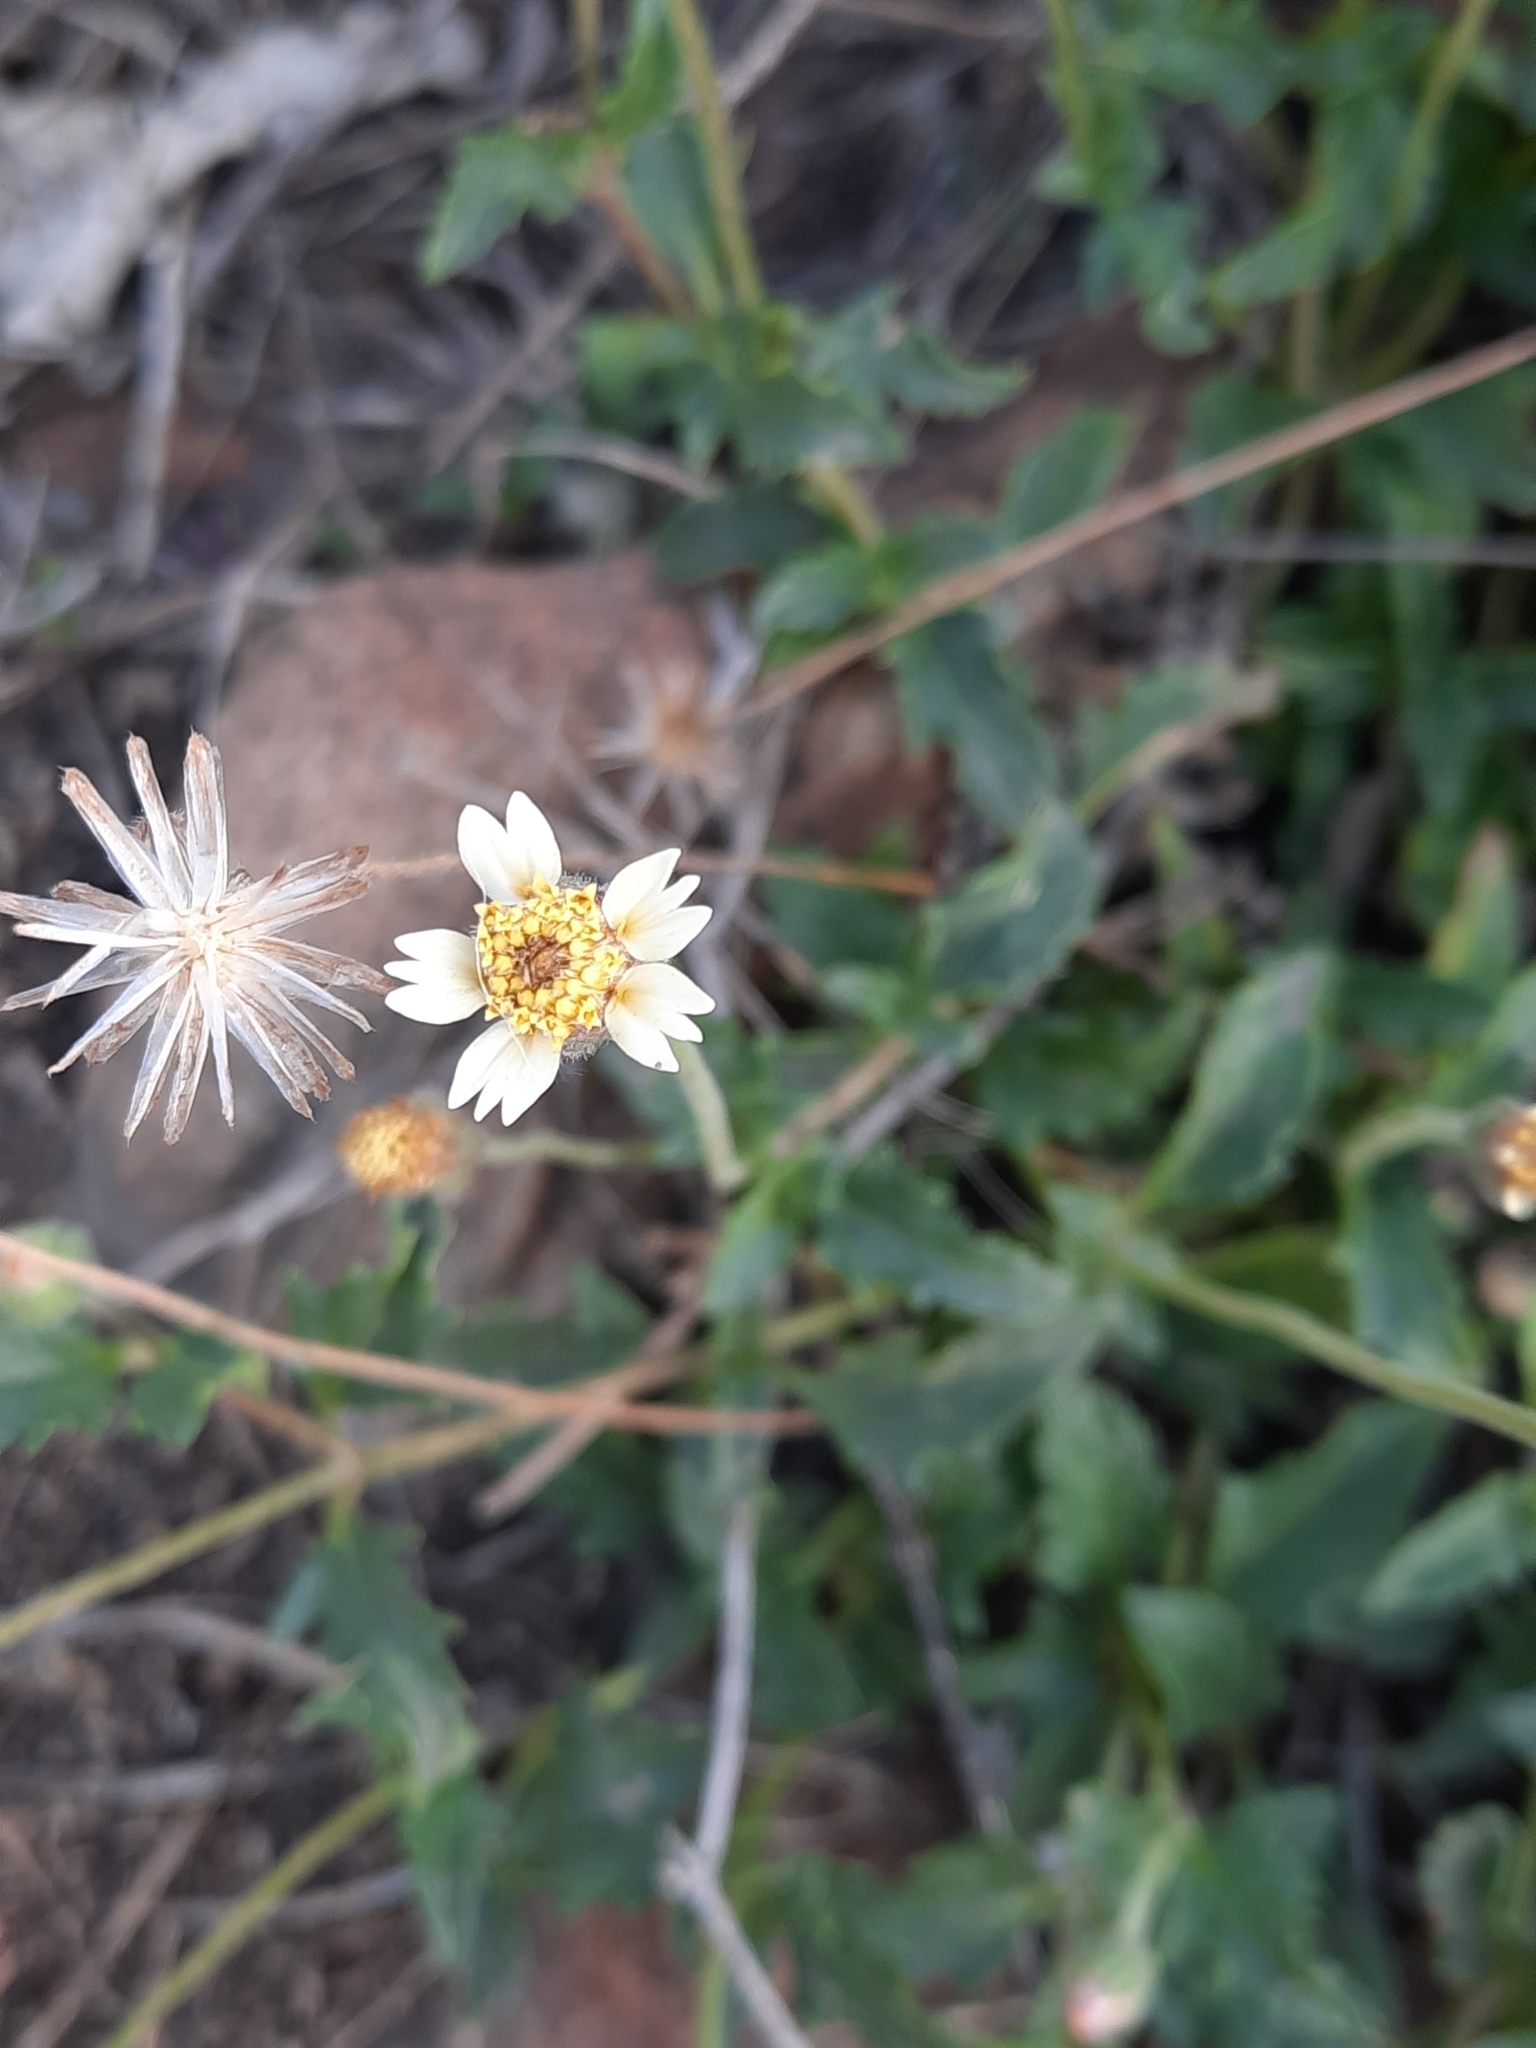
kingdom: Plantae
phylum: Tracheophyta
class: Magnoliopsida
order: Asterales
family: Asteraceae
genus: Tridax
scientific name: Tridax procumbens
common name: Coatbuttons
